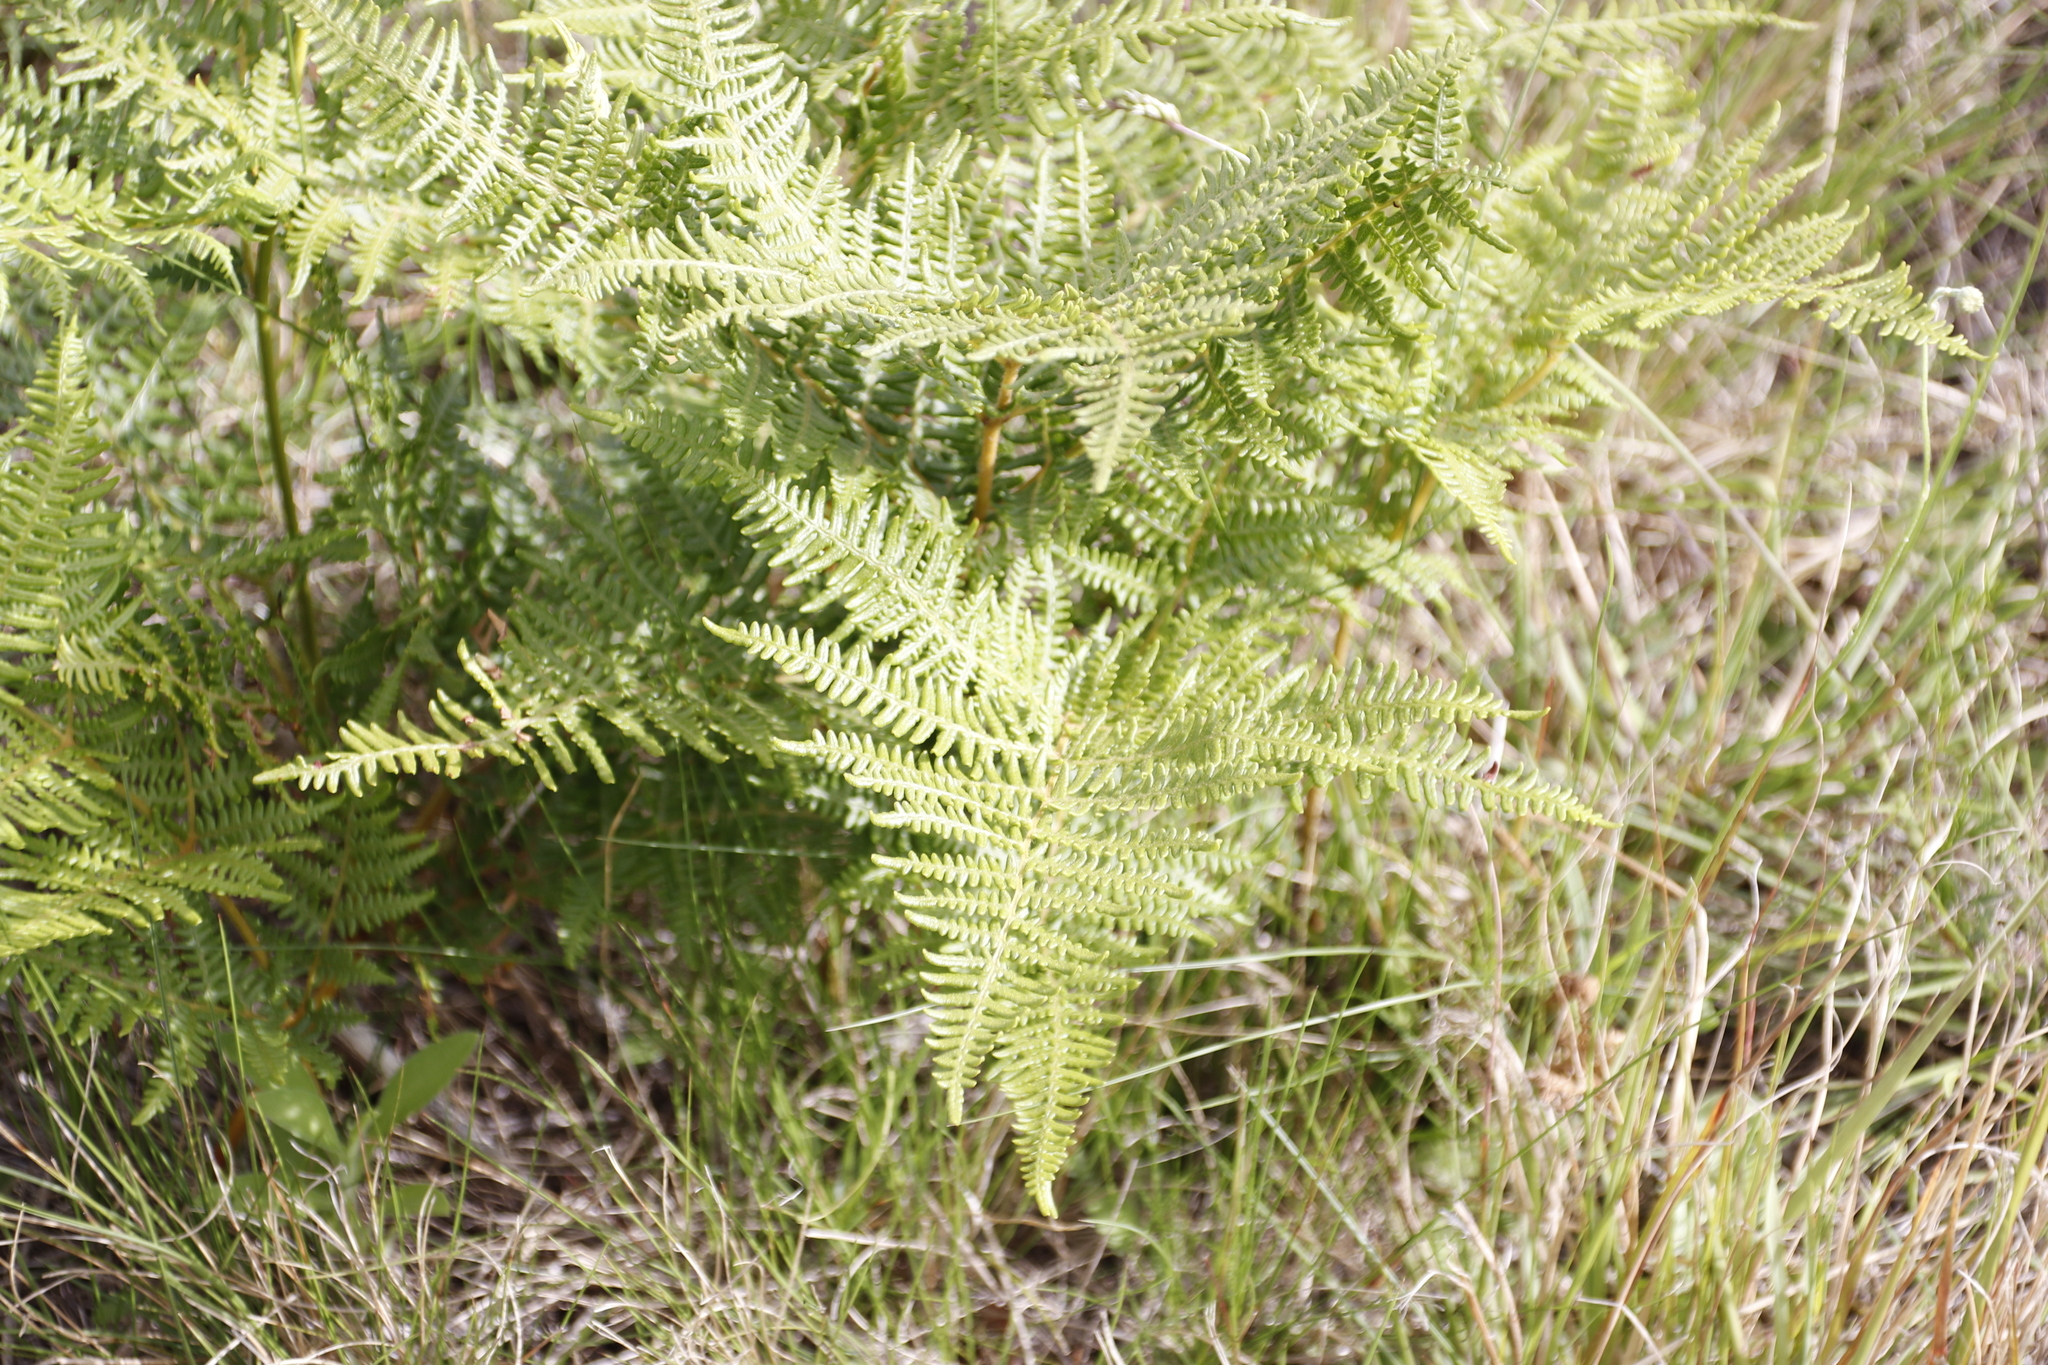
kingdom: Plantae
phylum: Tracheophyta
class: Polypodiopsida
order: Polypodiales
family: Dennstaedtiaceae
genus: Pteridium
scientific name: Pteridium aquilinum
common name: Bracken
